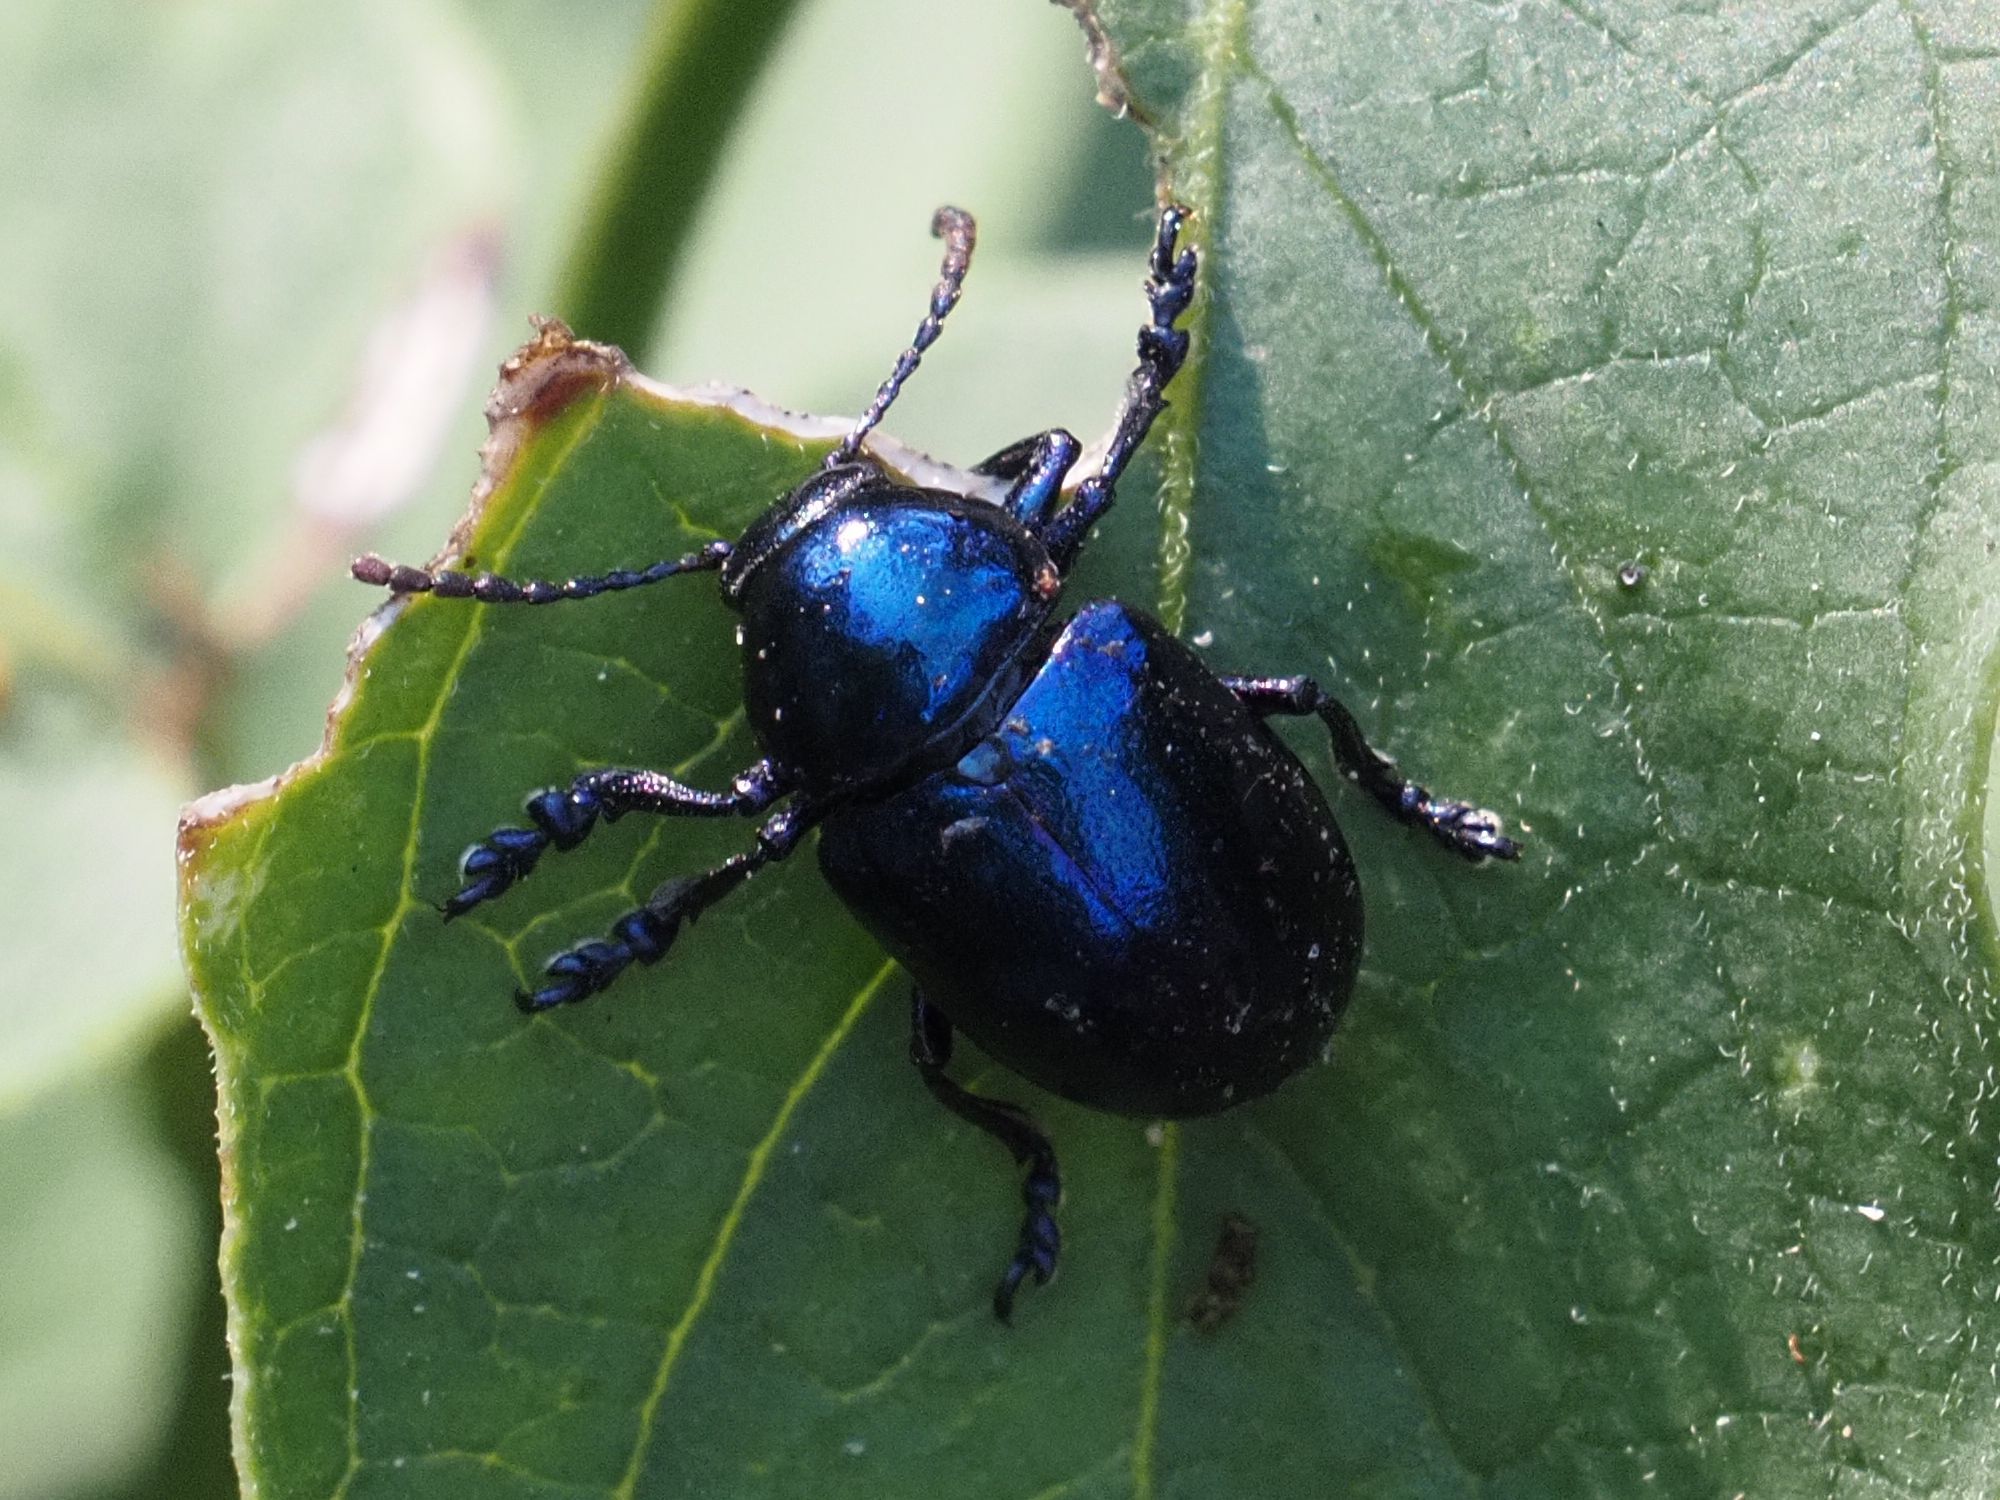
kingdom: Animalia
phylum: Arthropoda
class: Insecta
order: Coleoptera
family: Chrysomelidae
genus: Chrysochus
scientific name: Chrysochus asclepiadeus
